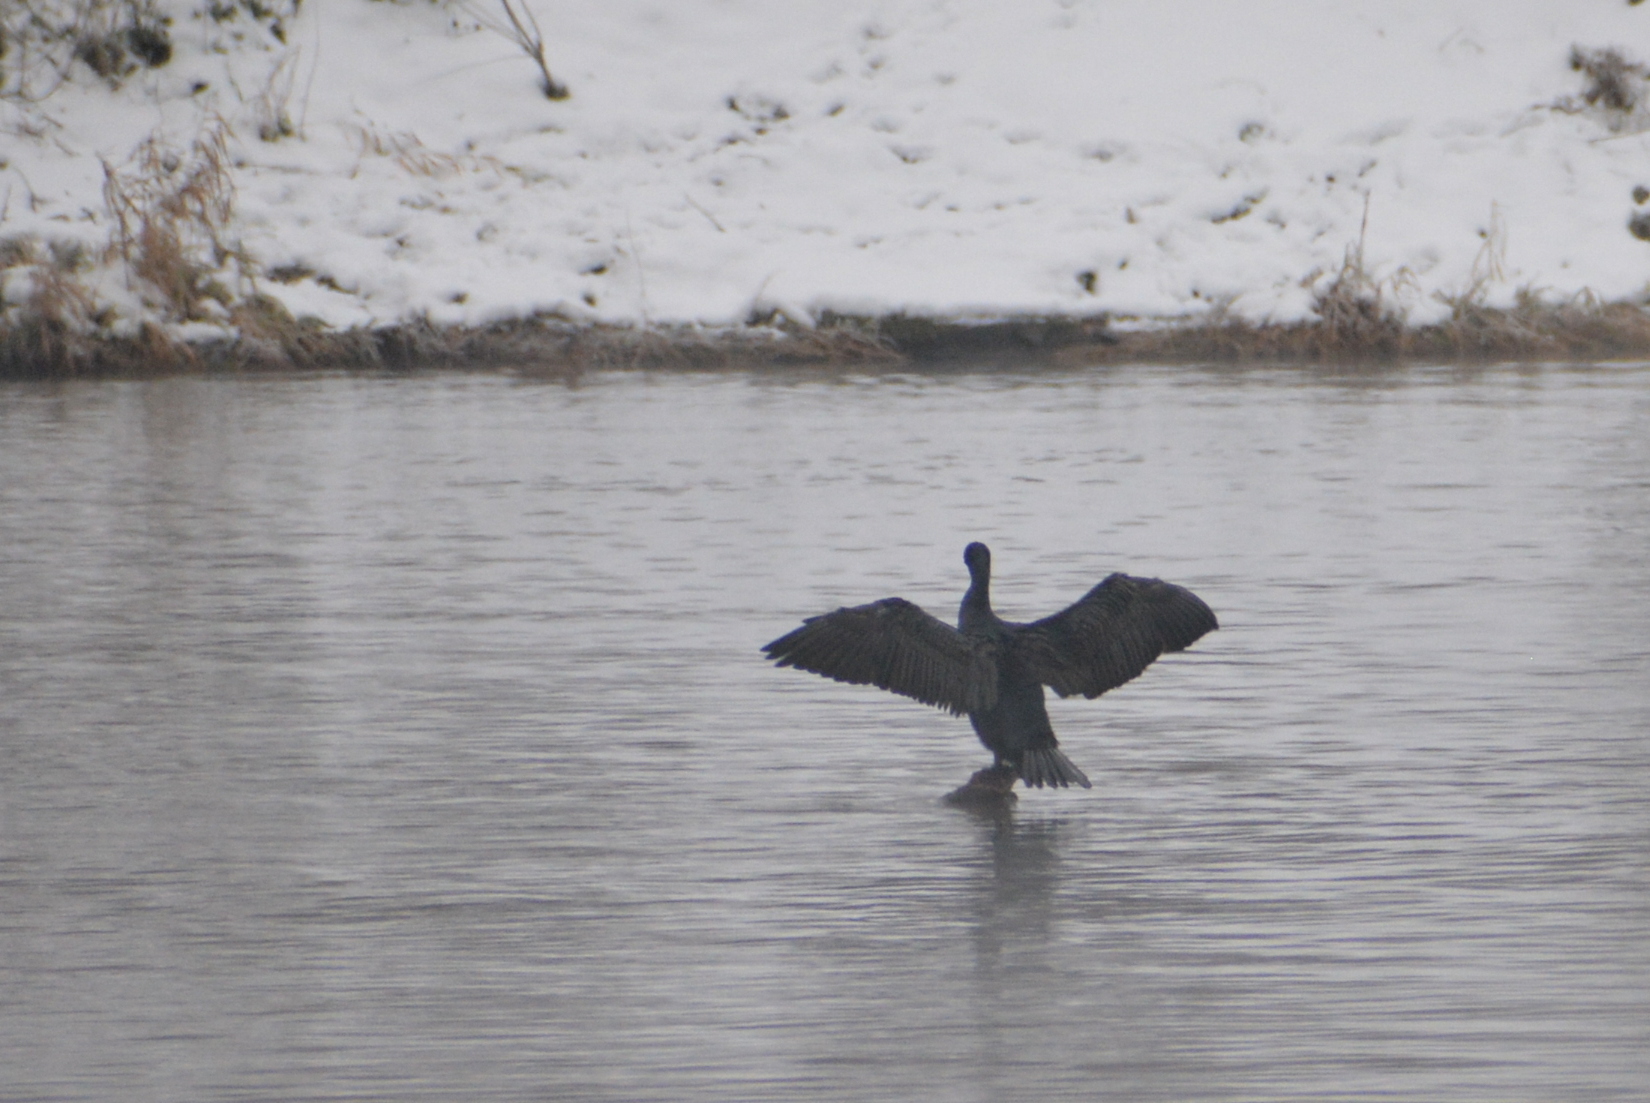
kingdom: Animalia
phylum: Chordata
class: Aves
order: Suliformes
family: Phalacrocoracidae
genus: Phalacrocorax
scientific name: Phalacrocorax carbo
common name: Great cormorant
